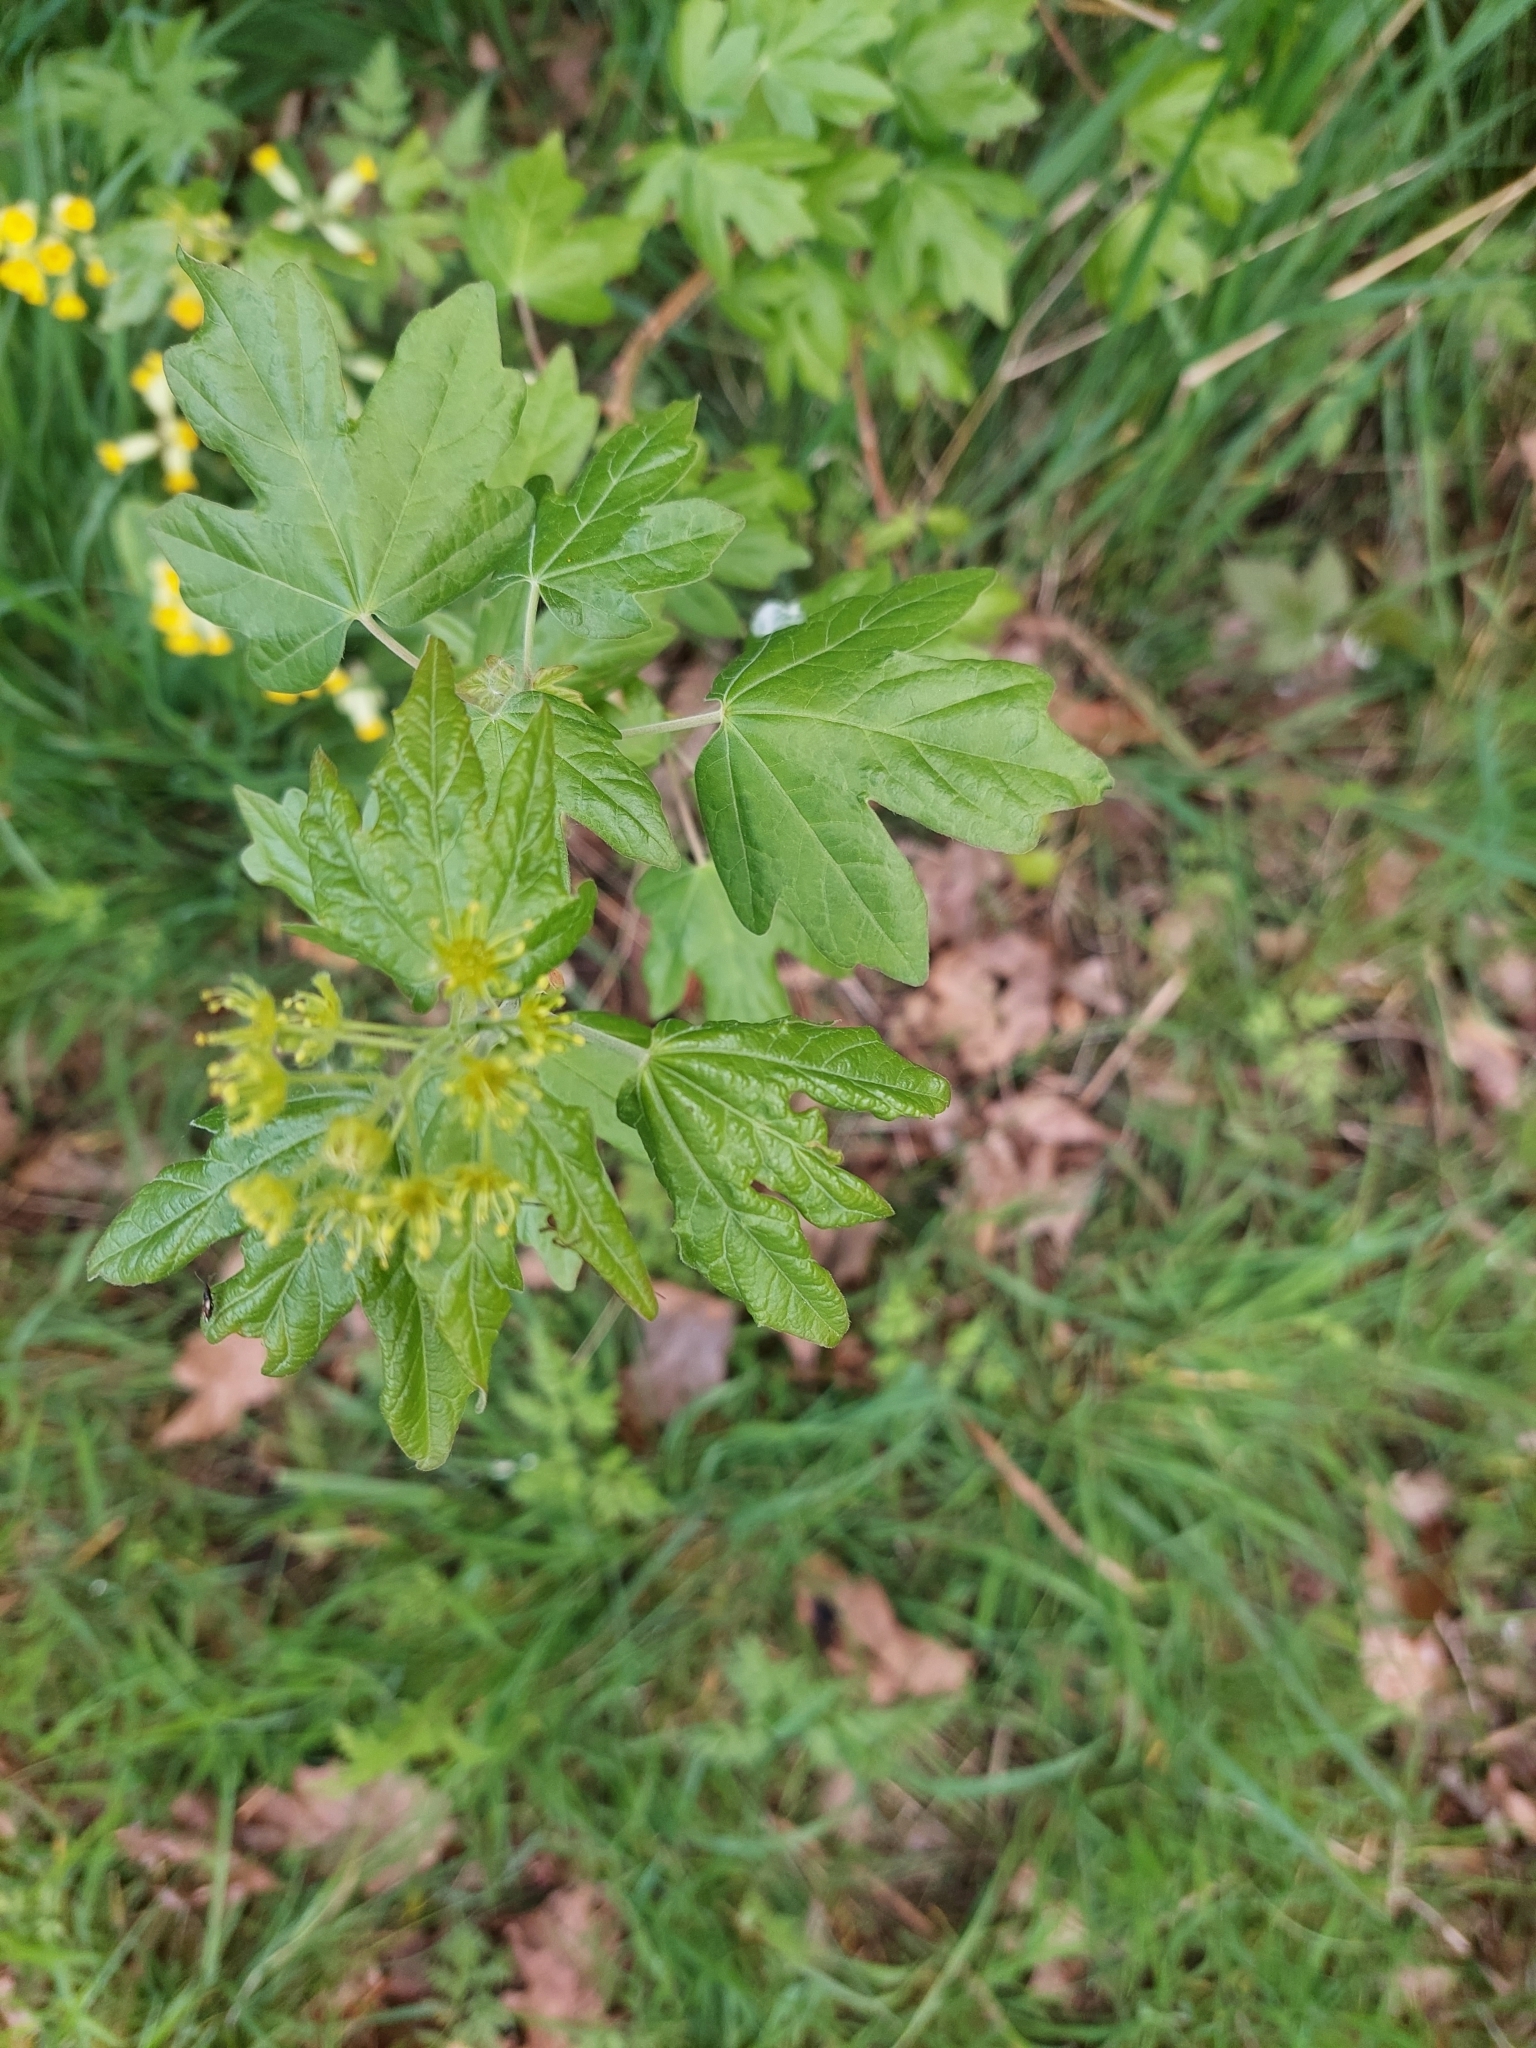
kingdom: Plantae
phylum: Tracheophyta
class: Magnoliopsida
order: Sapindales
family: Sapindaceae
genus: Acer
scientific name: Acer campestre
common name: Field maple
